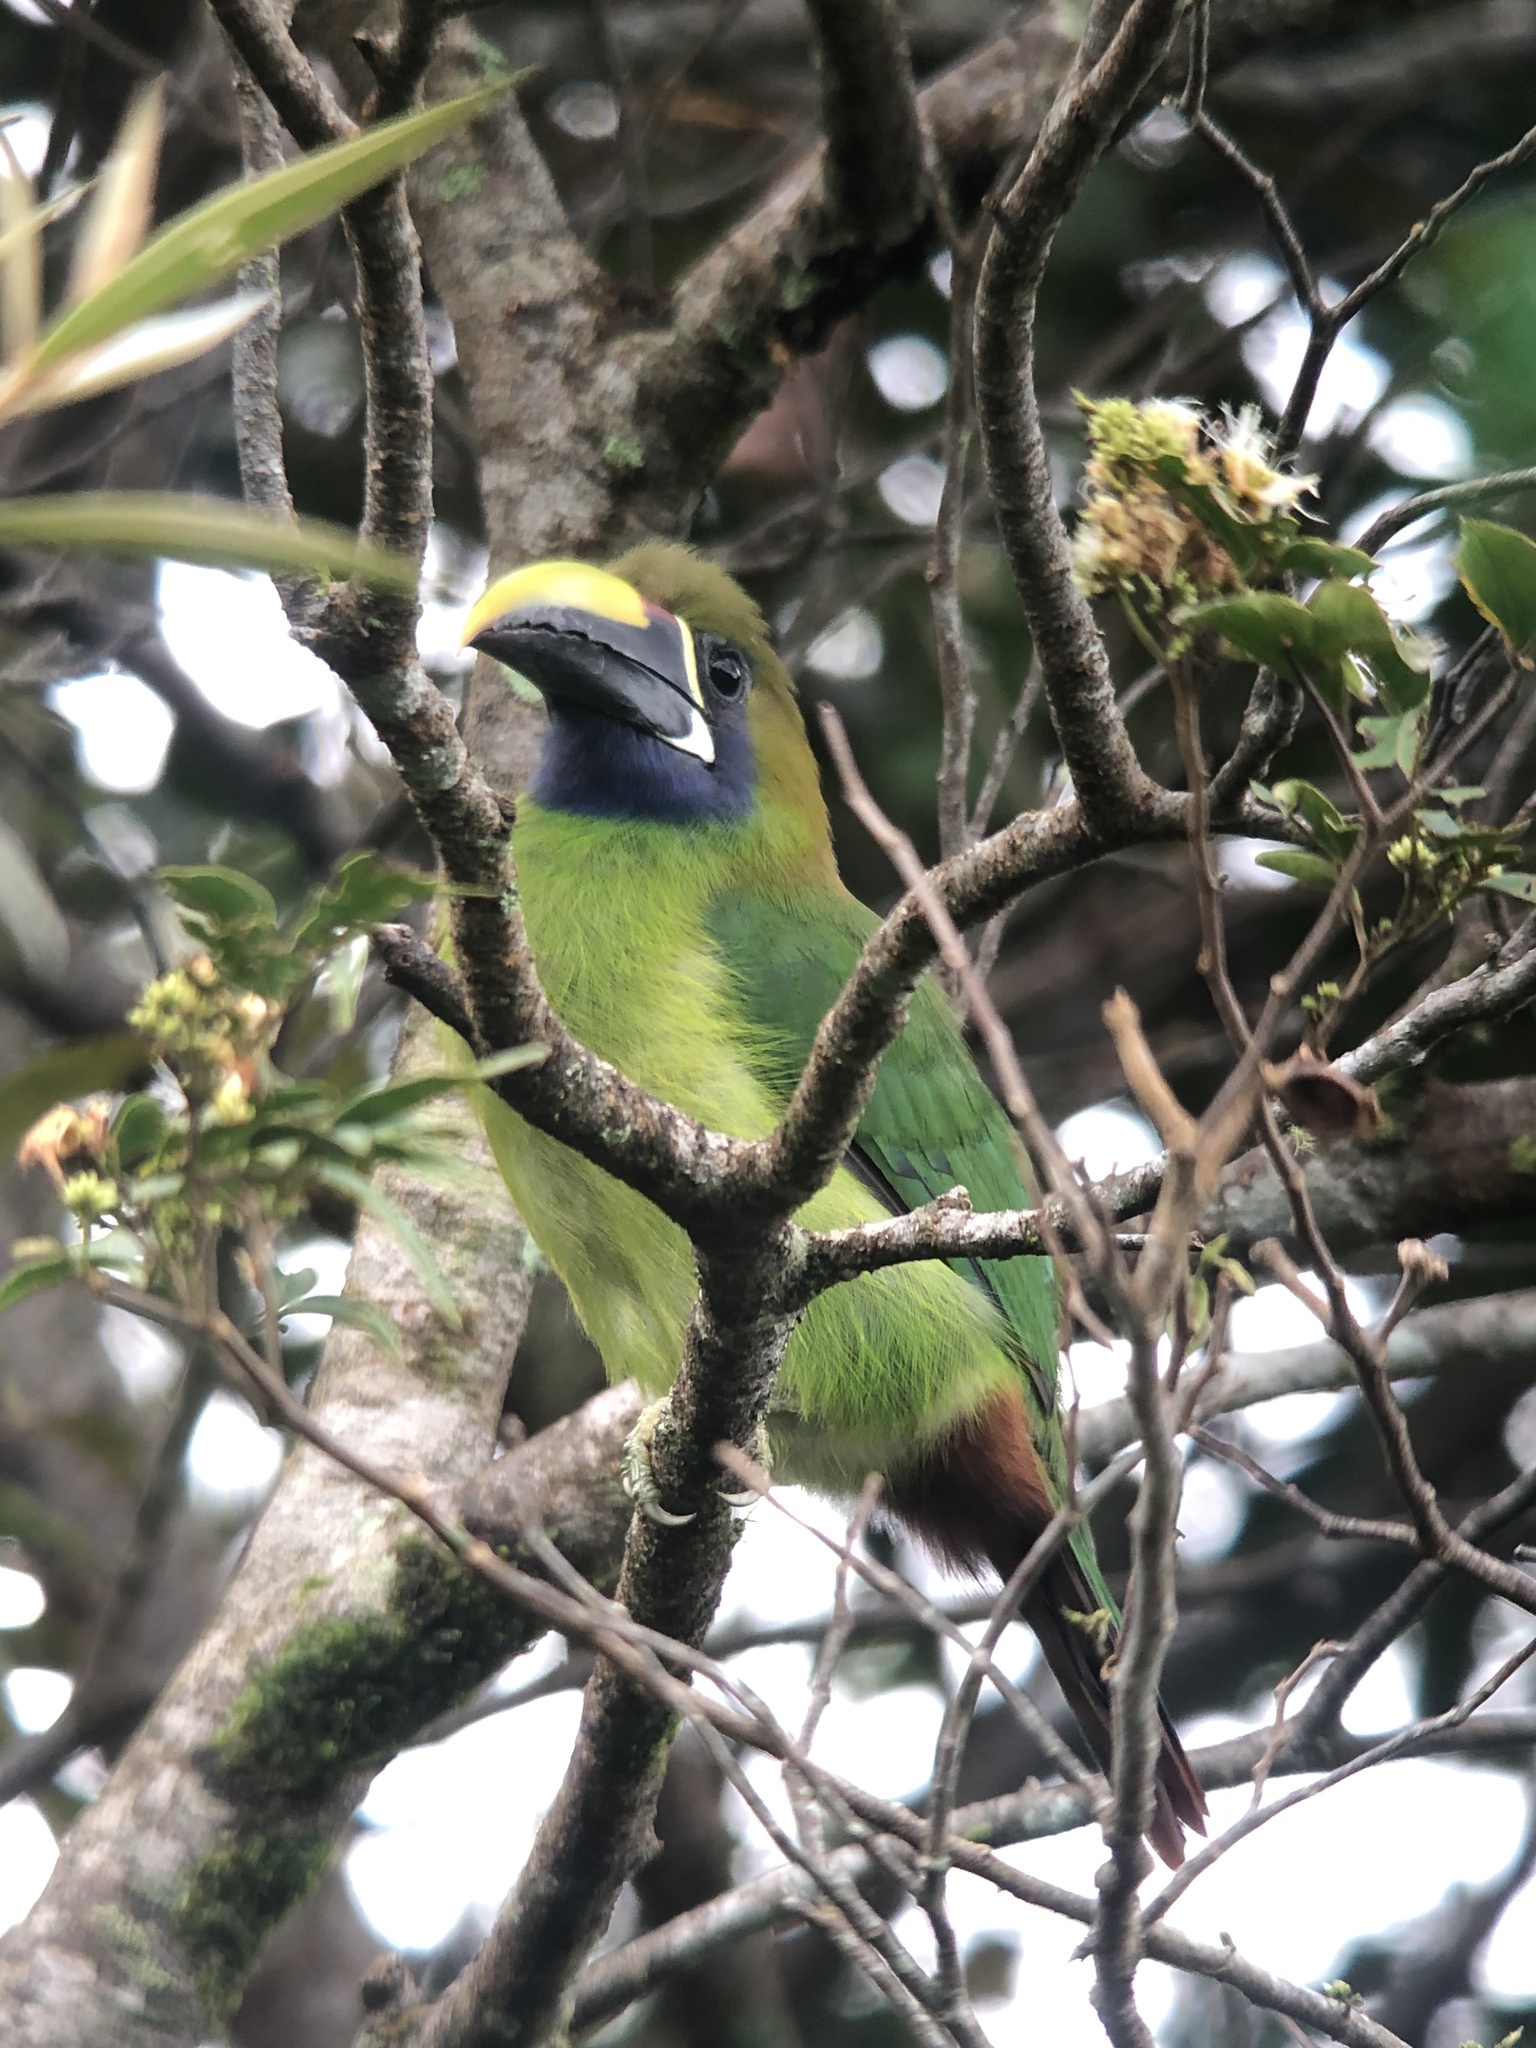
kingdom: Animalia
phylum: Chordata
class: Aves
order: Piciformes
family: Ramphastidae
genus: Aulacorhynchus
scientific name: Aulacorhynchus prasinus
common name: Emerald toucanet
